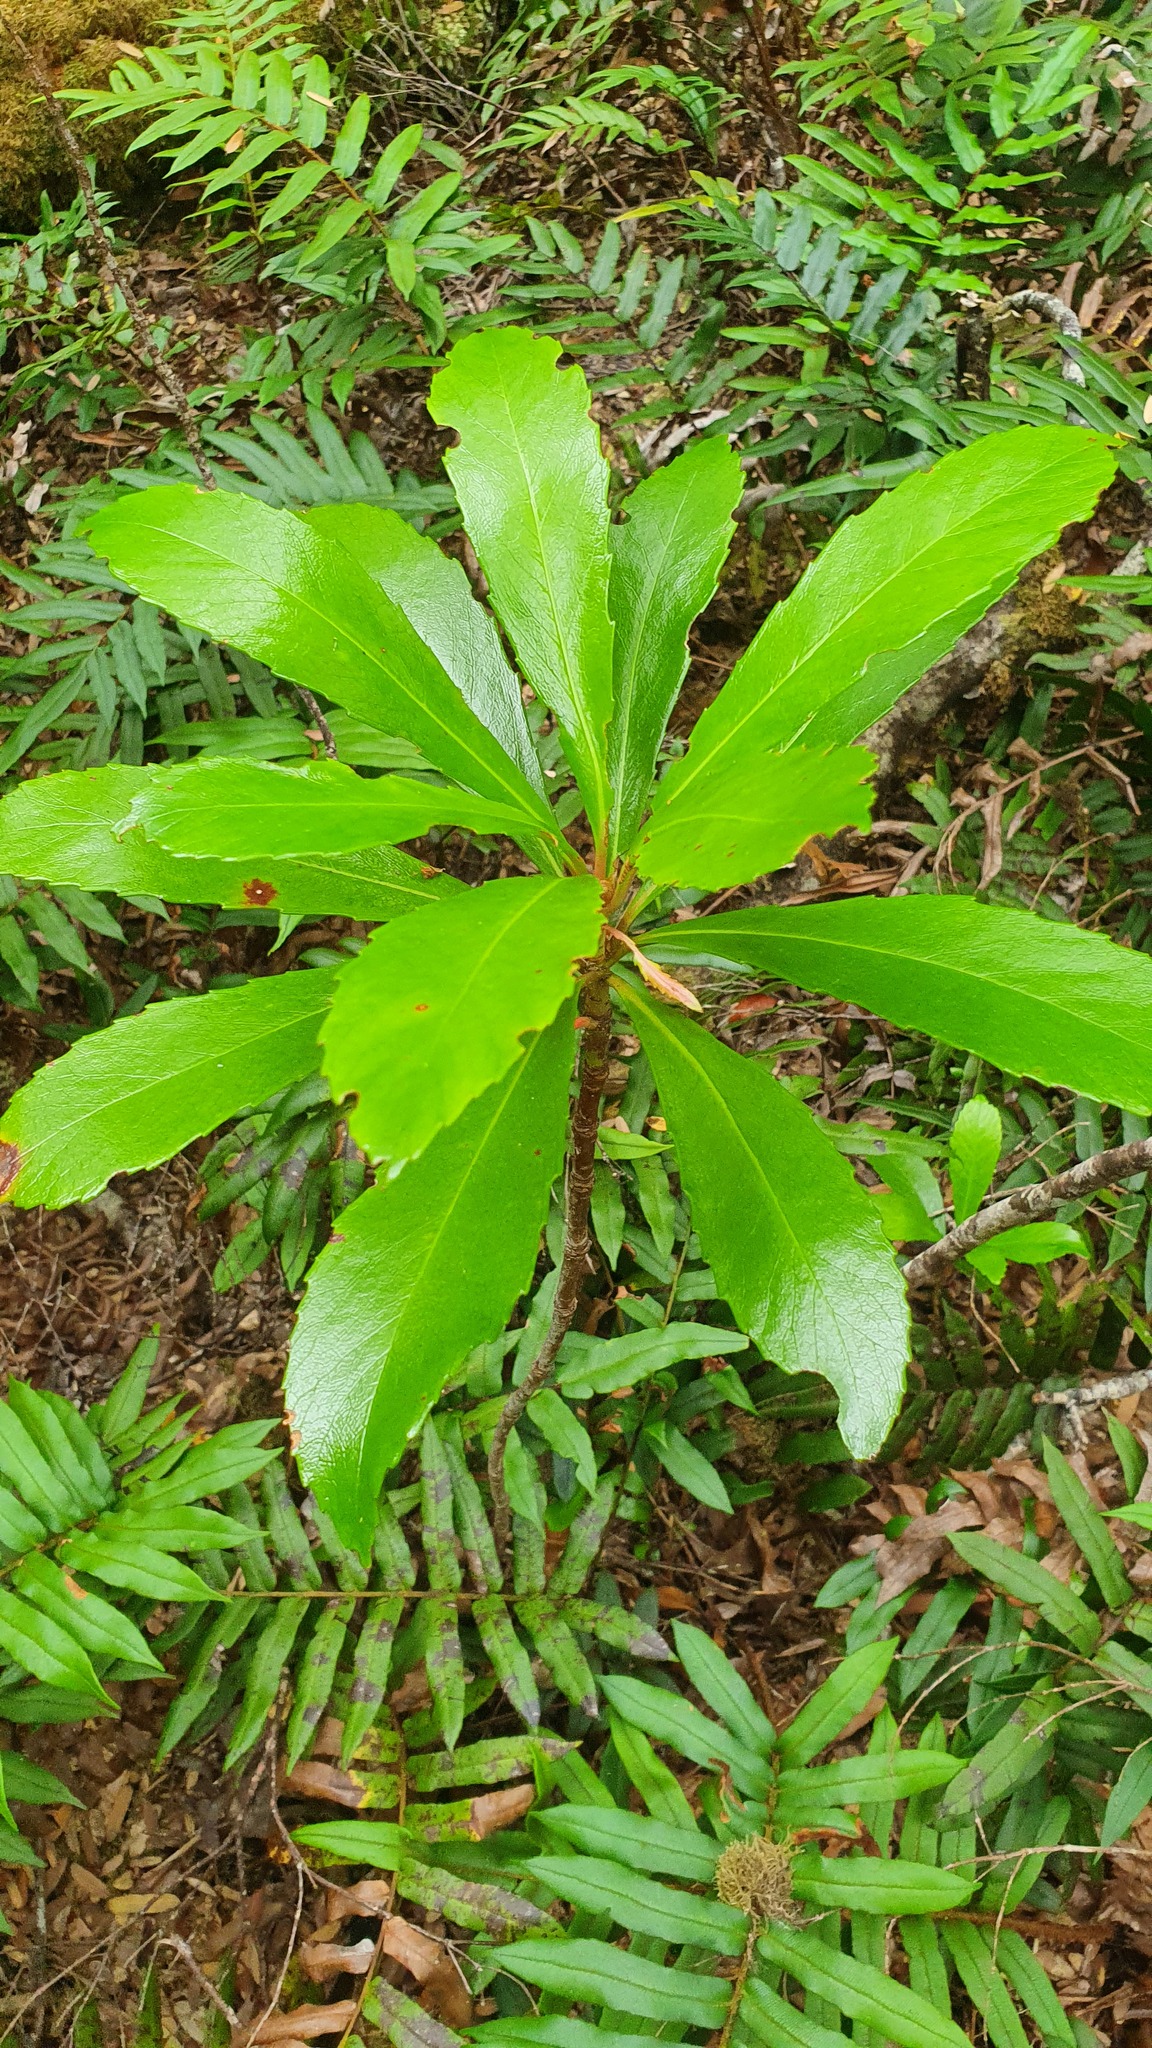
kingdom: Plantae
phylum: Tracheophyta
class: Magnoliopsida
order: Escalloniales
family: Escalloniaceae
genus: Anopterus
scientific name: Anopterus glandulosus
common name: Tasmanian-laurel
